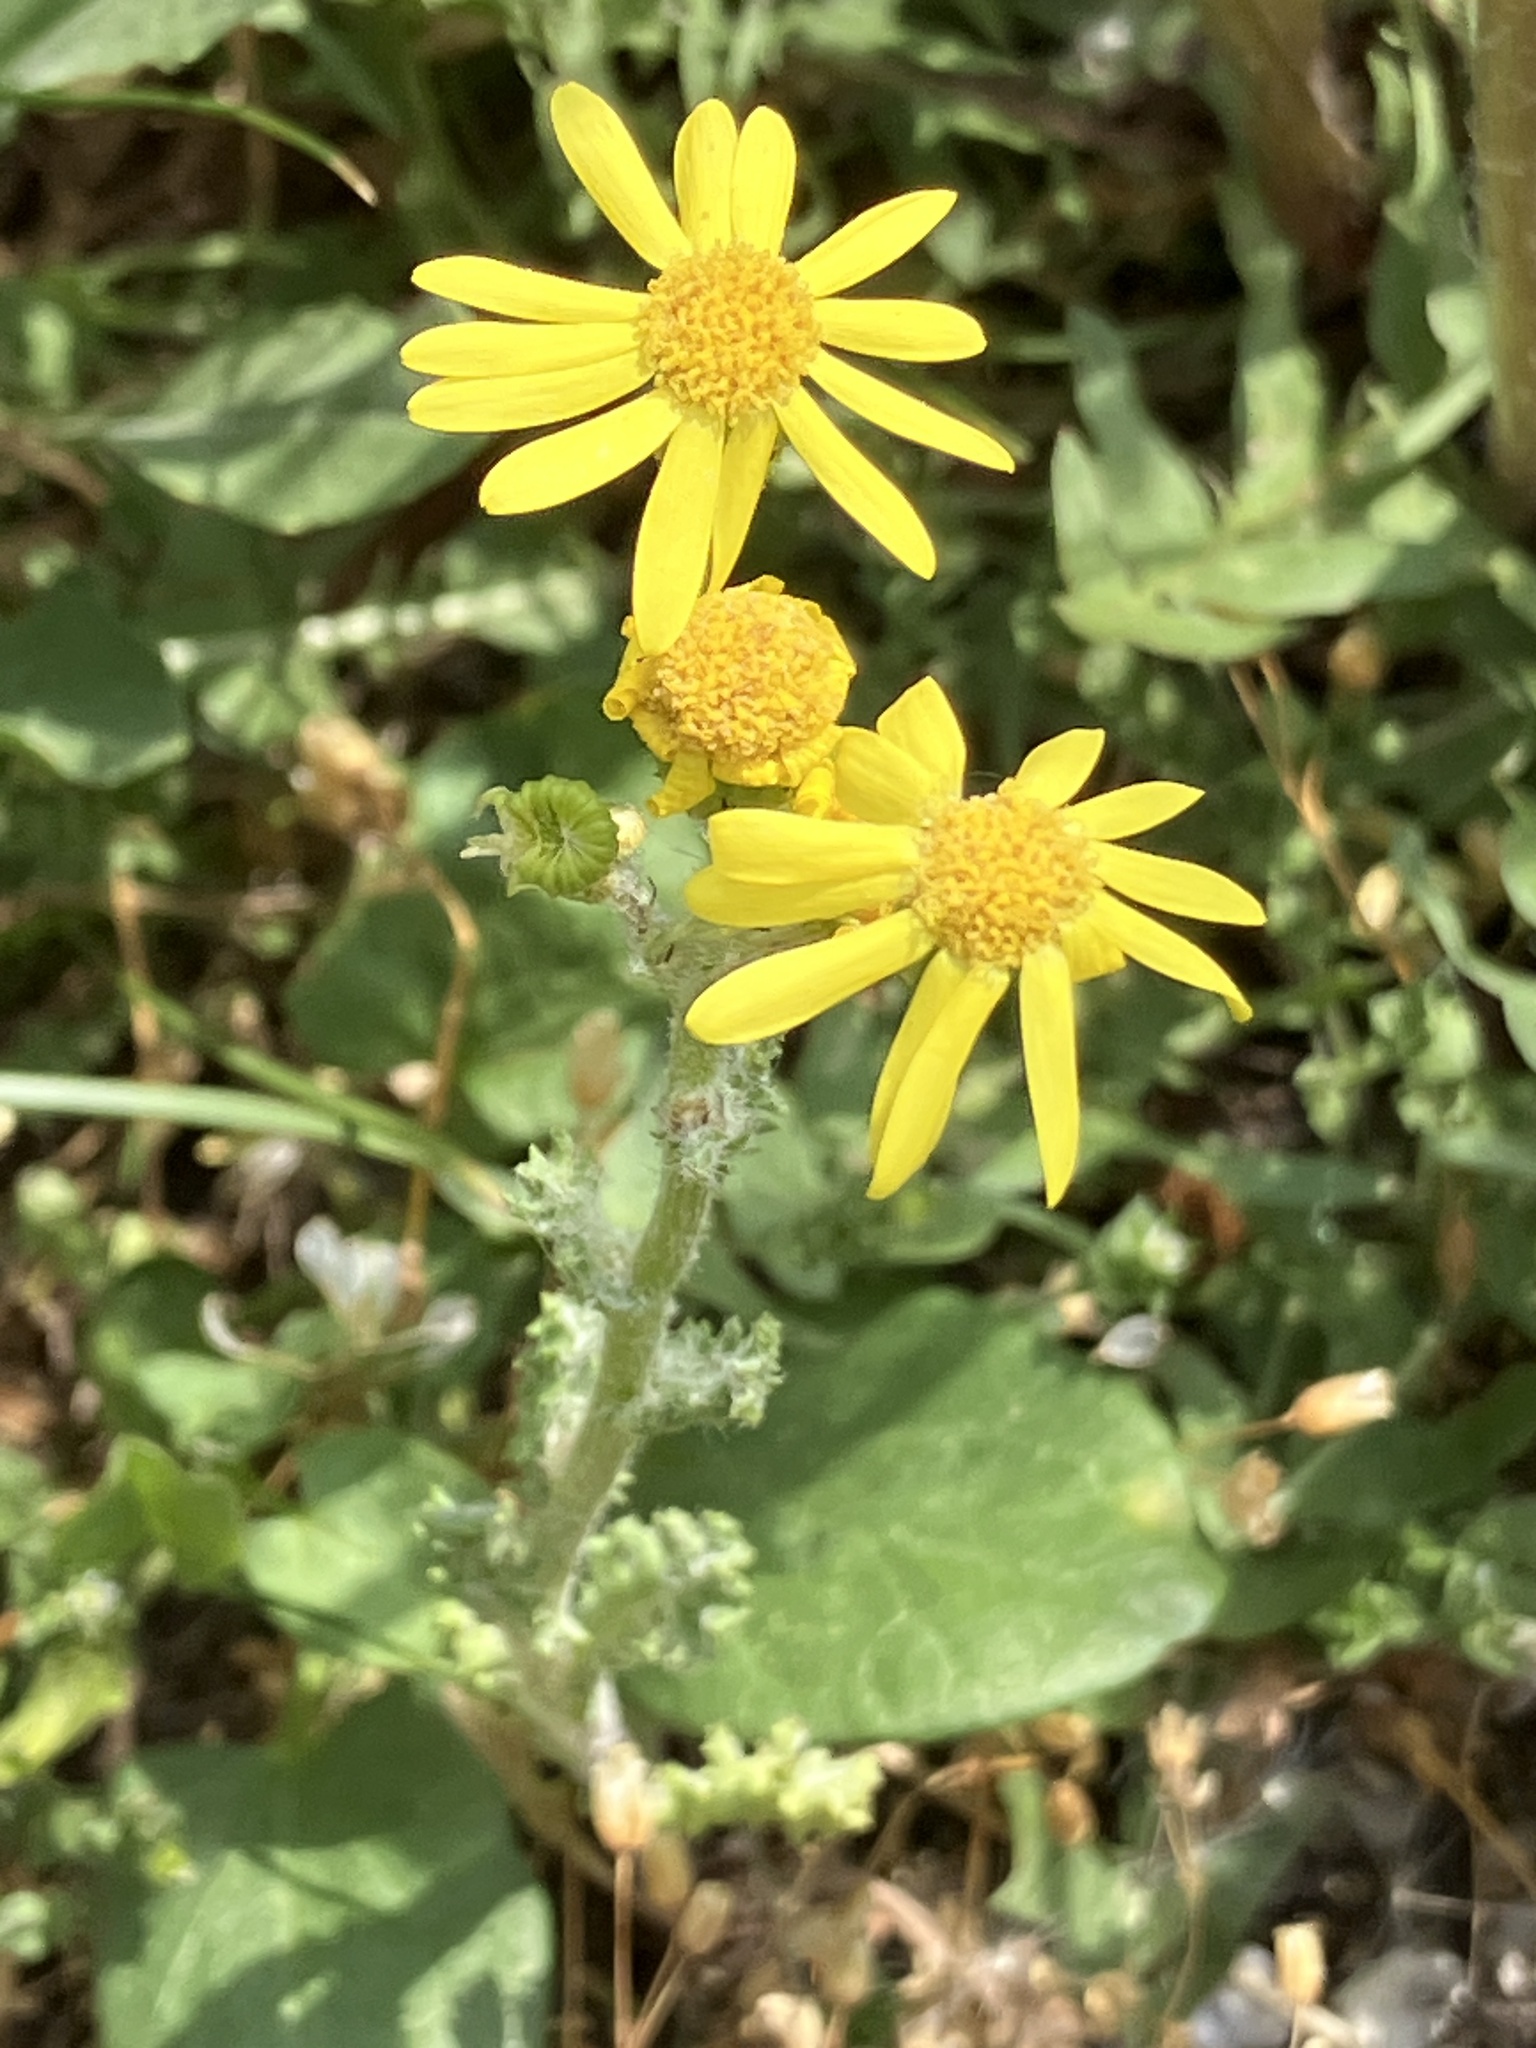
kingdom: Plantae
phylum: Tracheophyta
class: Magnoliopsida
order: Asterales
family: Asteraceae
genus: Senecio
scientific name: Senecio vernalis
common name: Eastern groundsel
